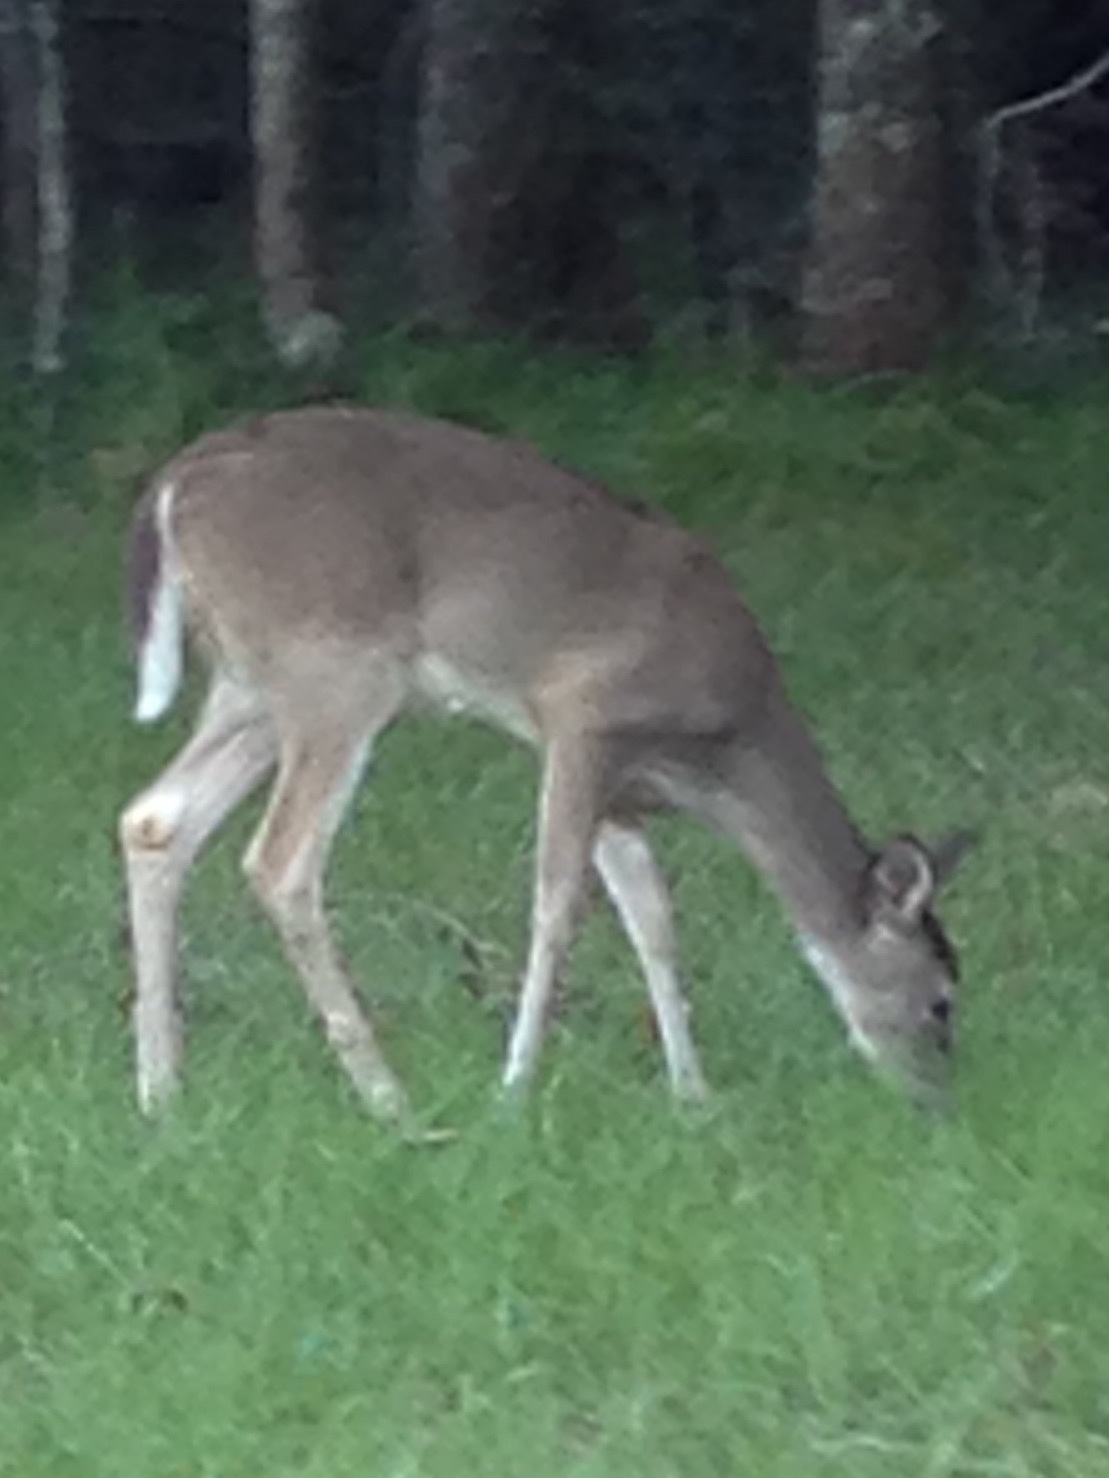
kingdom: Animalia
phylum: Chordata
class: Mammalia
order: Artiodactyla
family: Cervidae
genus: Odocoileus
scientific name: Odocoileus virginianus
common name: White-tailed deer
